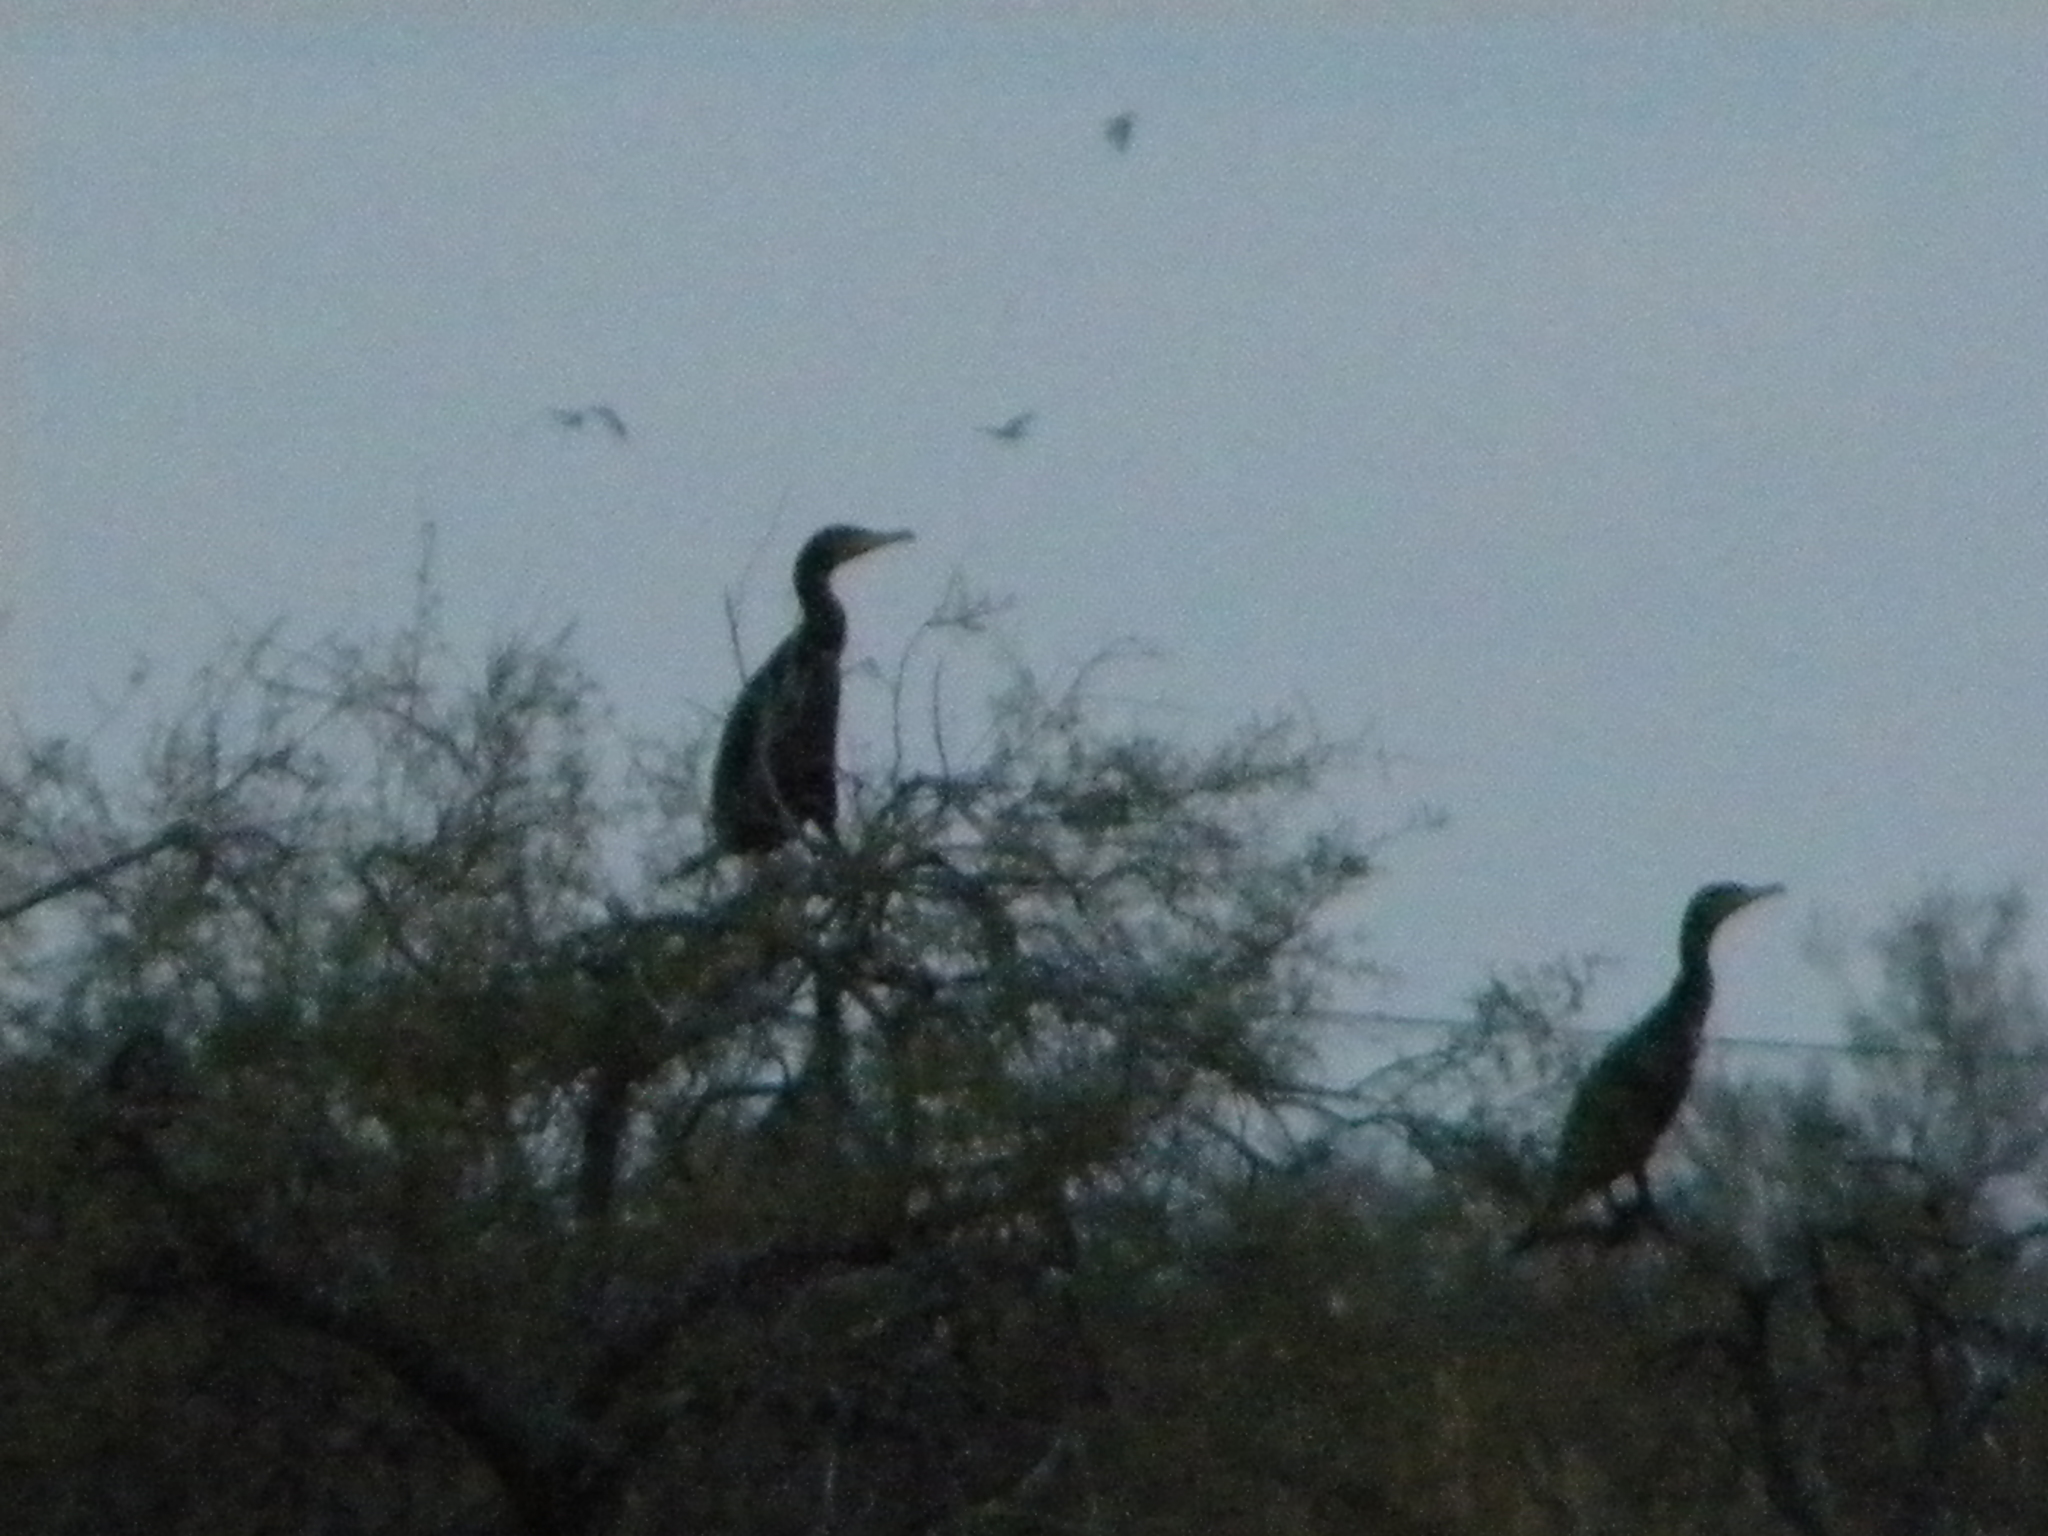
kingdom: Animalia
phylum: Chordata
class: Aves
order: Suliformes
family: Phalacrocoracidae
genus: Phalacrocorax
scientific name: Phalacrocorax carbo
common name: Great cormorant
